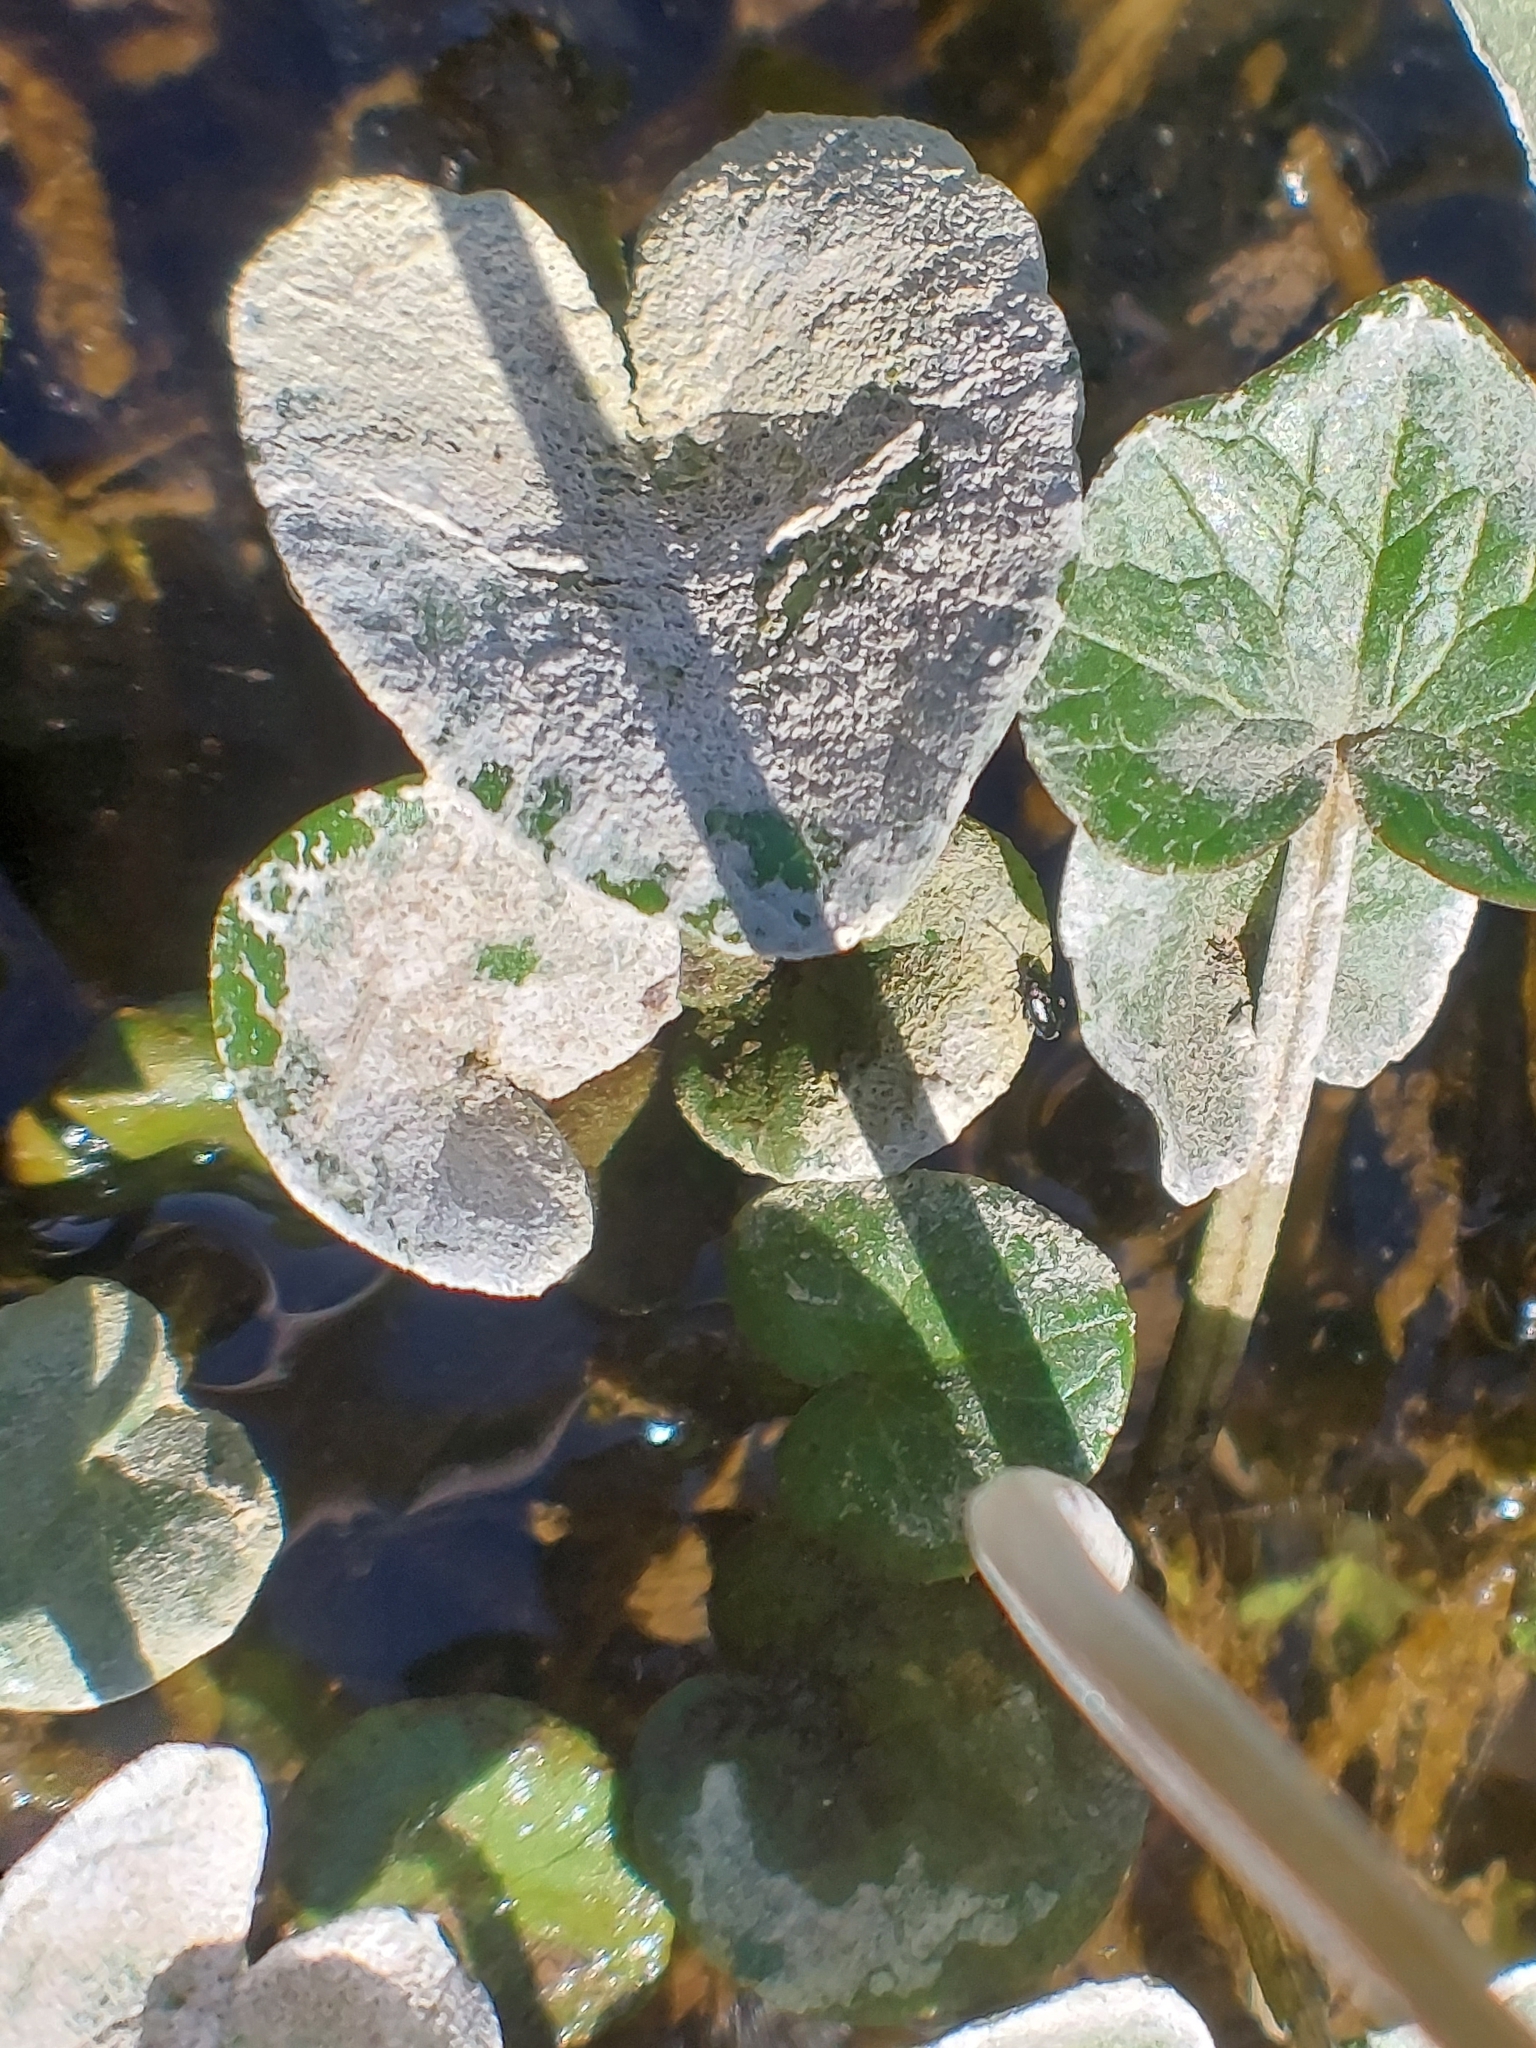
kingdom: Plantae
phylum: Tracheophyta
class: Magnoliopsida
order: Ranunculales
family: Ranunculaceae
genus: Ficaria
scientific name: Ficaria verna
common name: Lesser celandine
